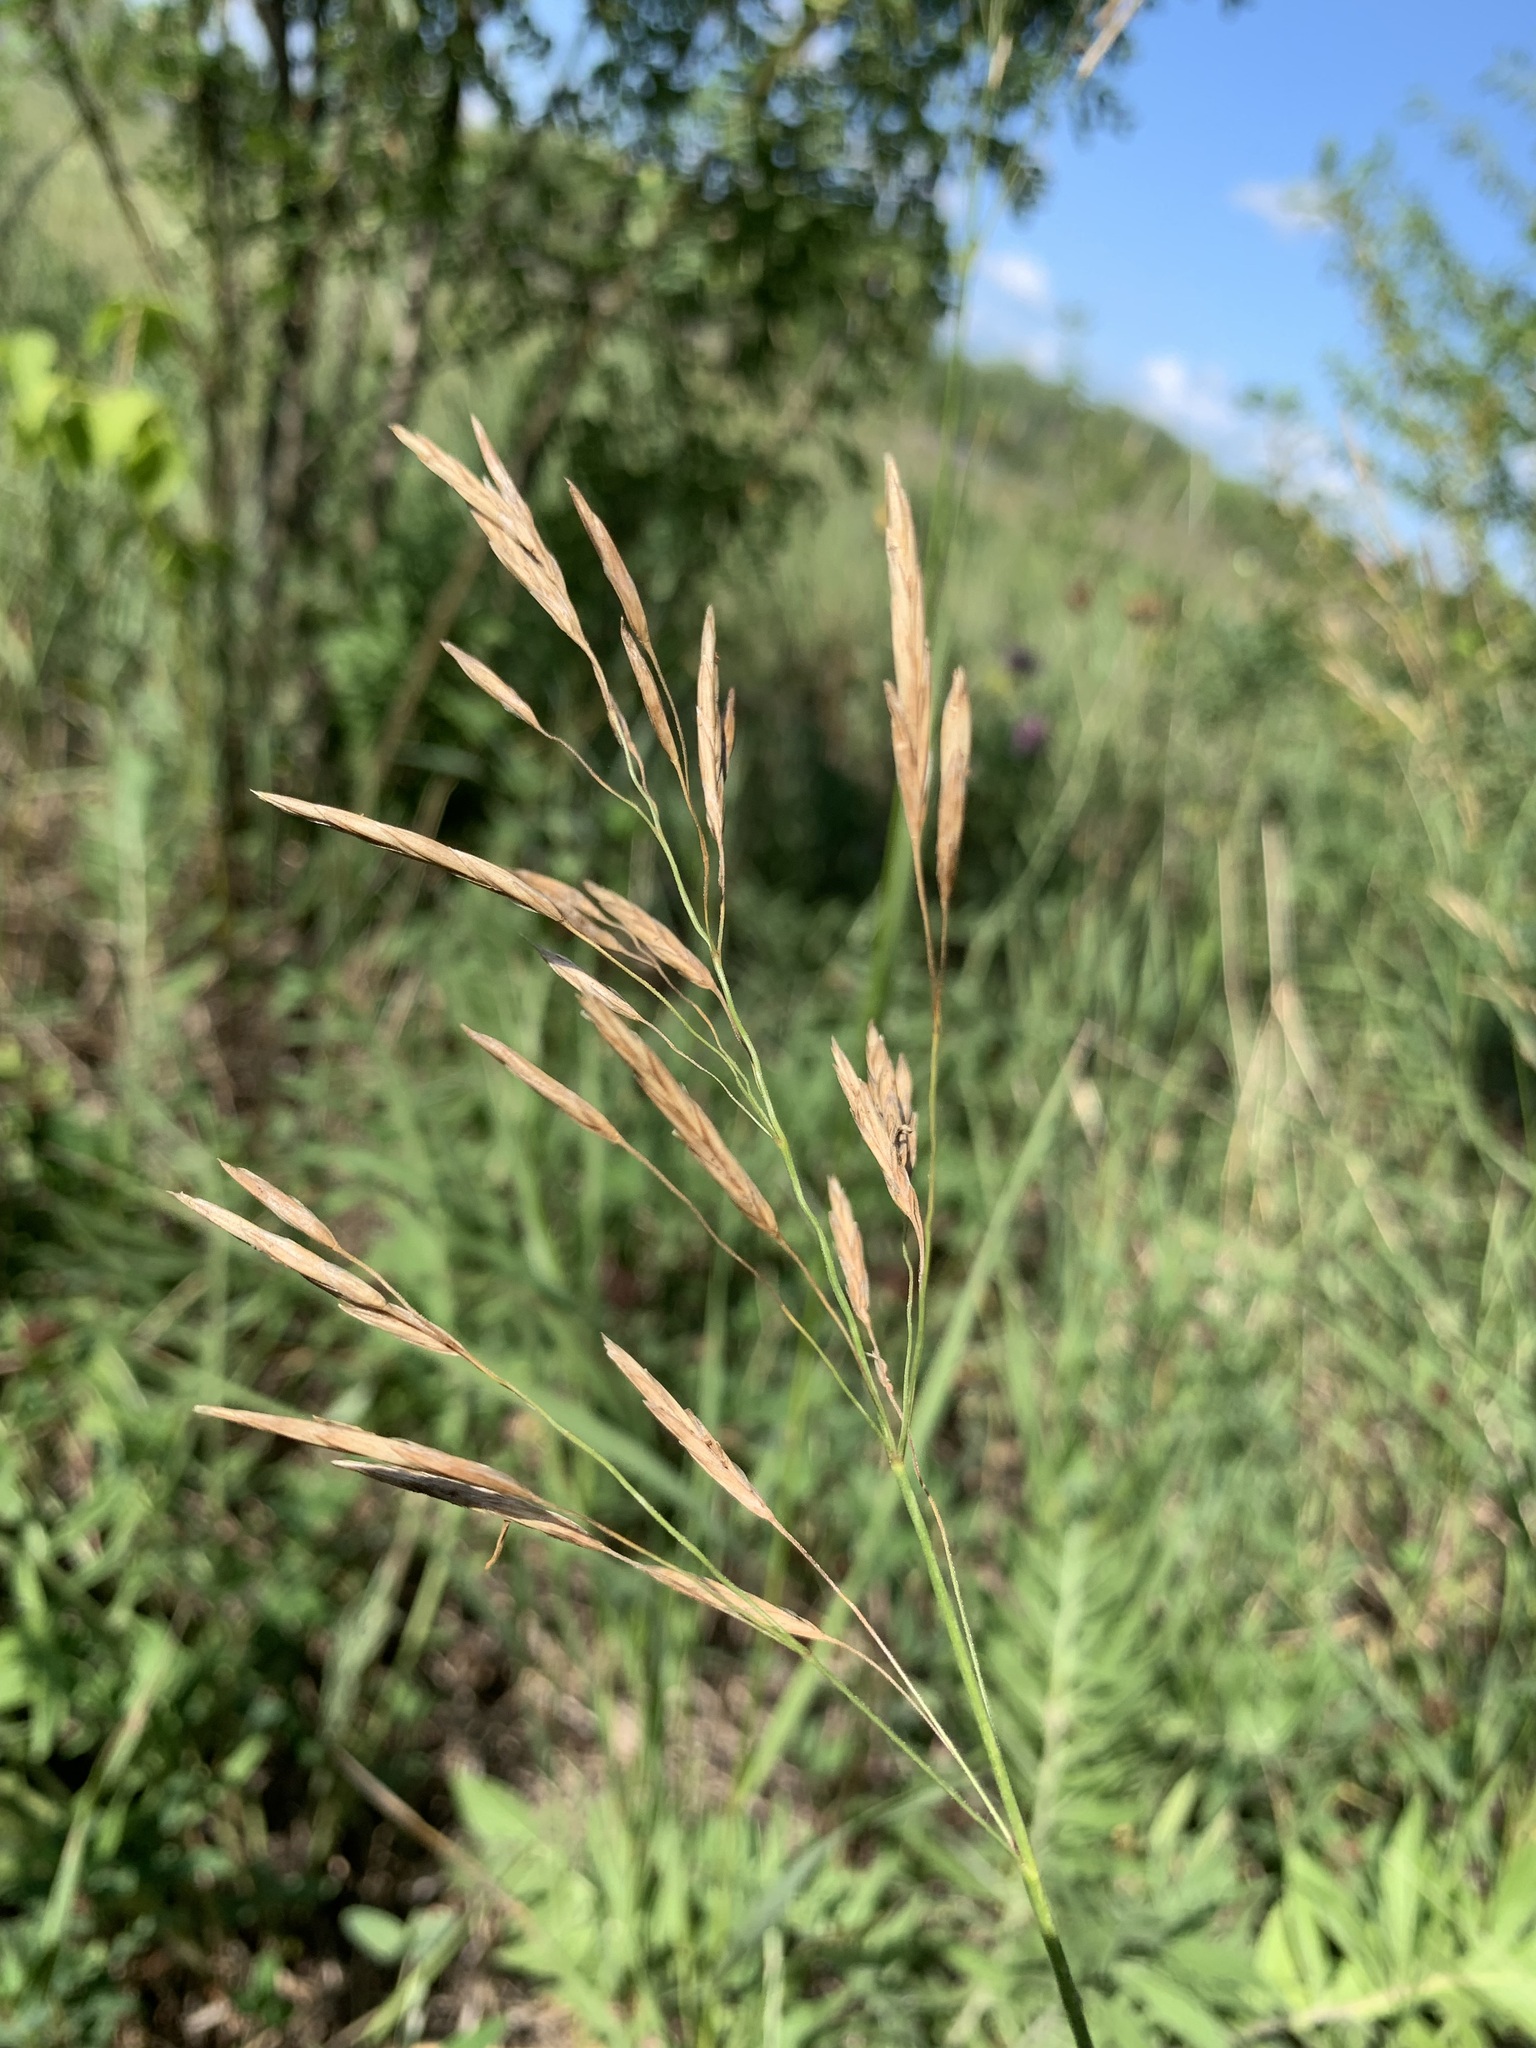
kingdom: Plantae
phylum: Tracheophyta
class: Liliopsida
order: Poales
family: Poaceae
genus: Bromus
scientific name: Bromus inermis
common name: Smooth brome
